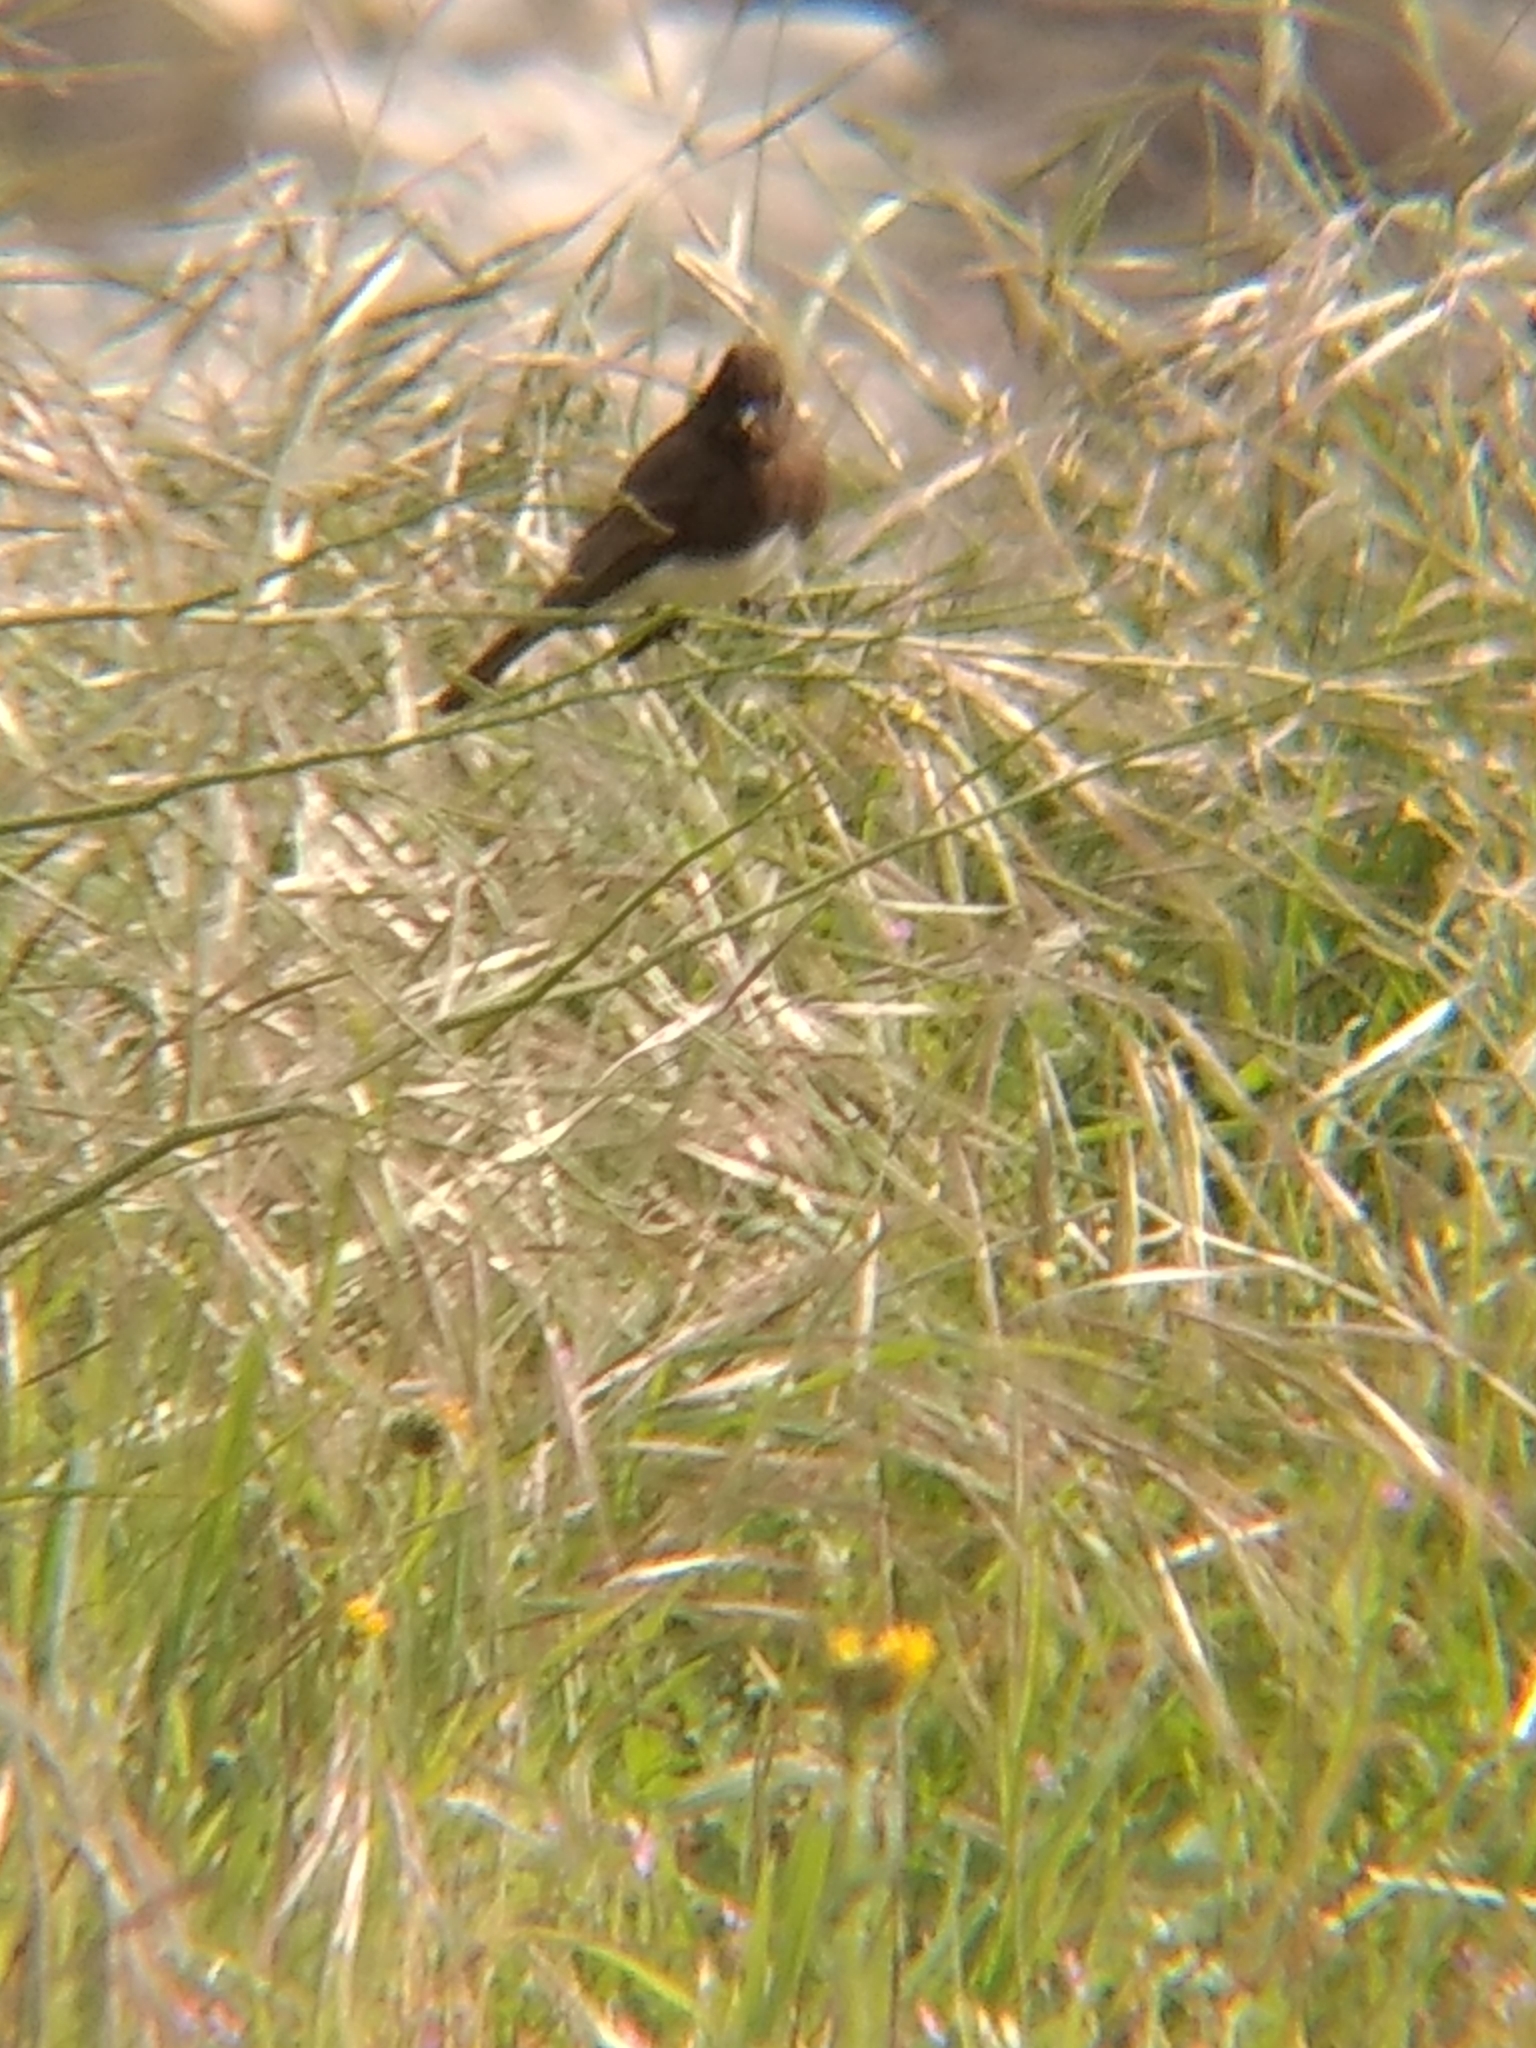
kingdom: Animalia
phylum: Chordata
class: Aves
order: Passeriformes
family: Tyrannidae
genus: Sayornis
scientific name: Sayornis nigricans
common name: Black phoebe
